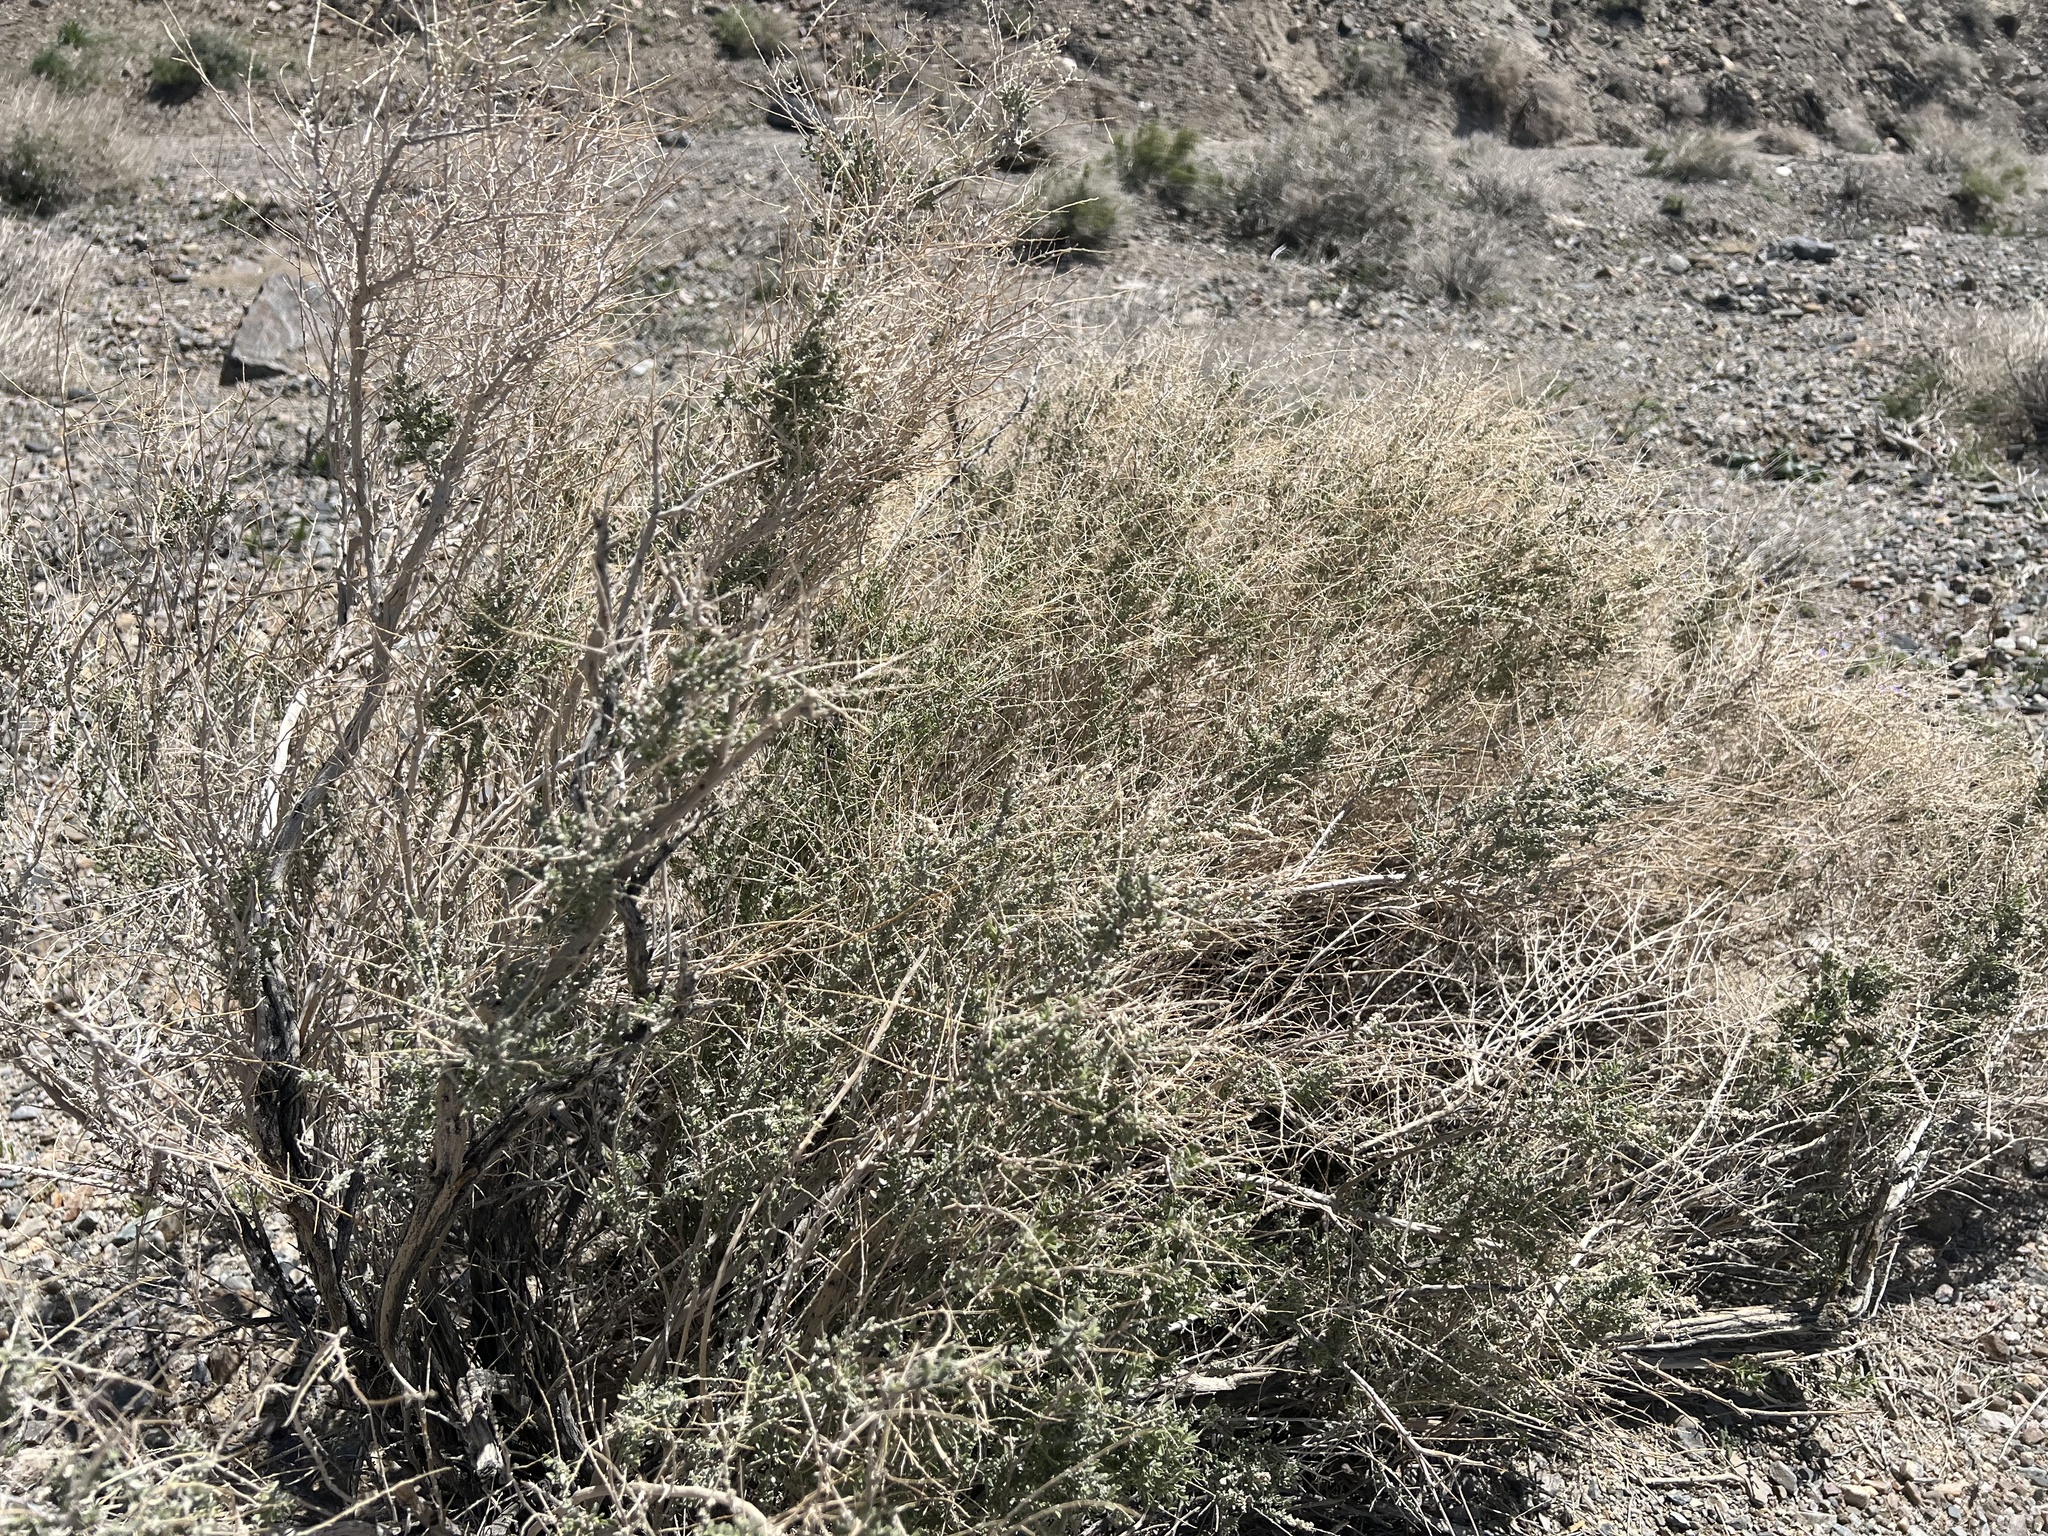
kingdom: Plantae
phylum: Tracheophyta
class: Magnoliopsida
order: Caryophyllales
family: Amaranthaceae
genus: Atriplex
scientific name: Atriplex polycarpa
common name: Desert saltbush
